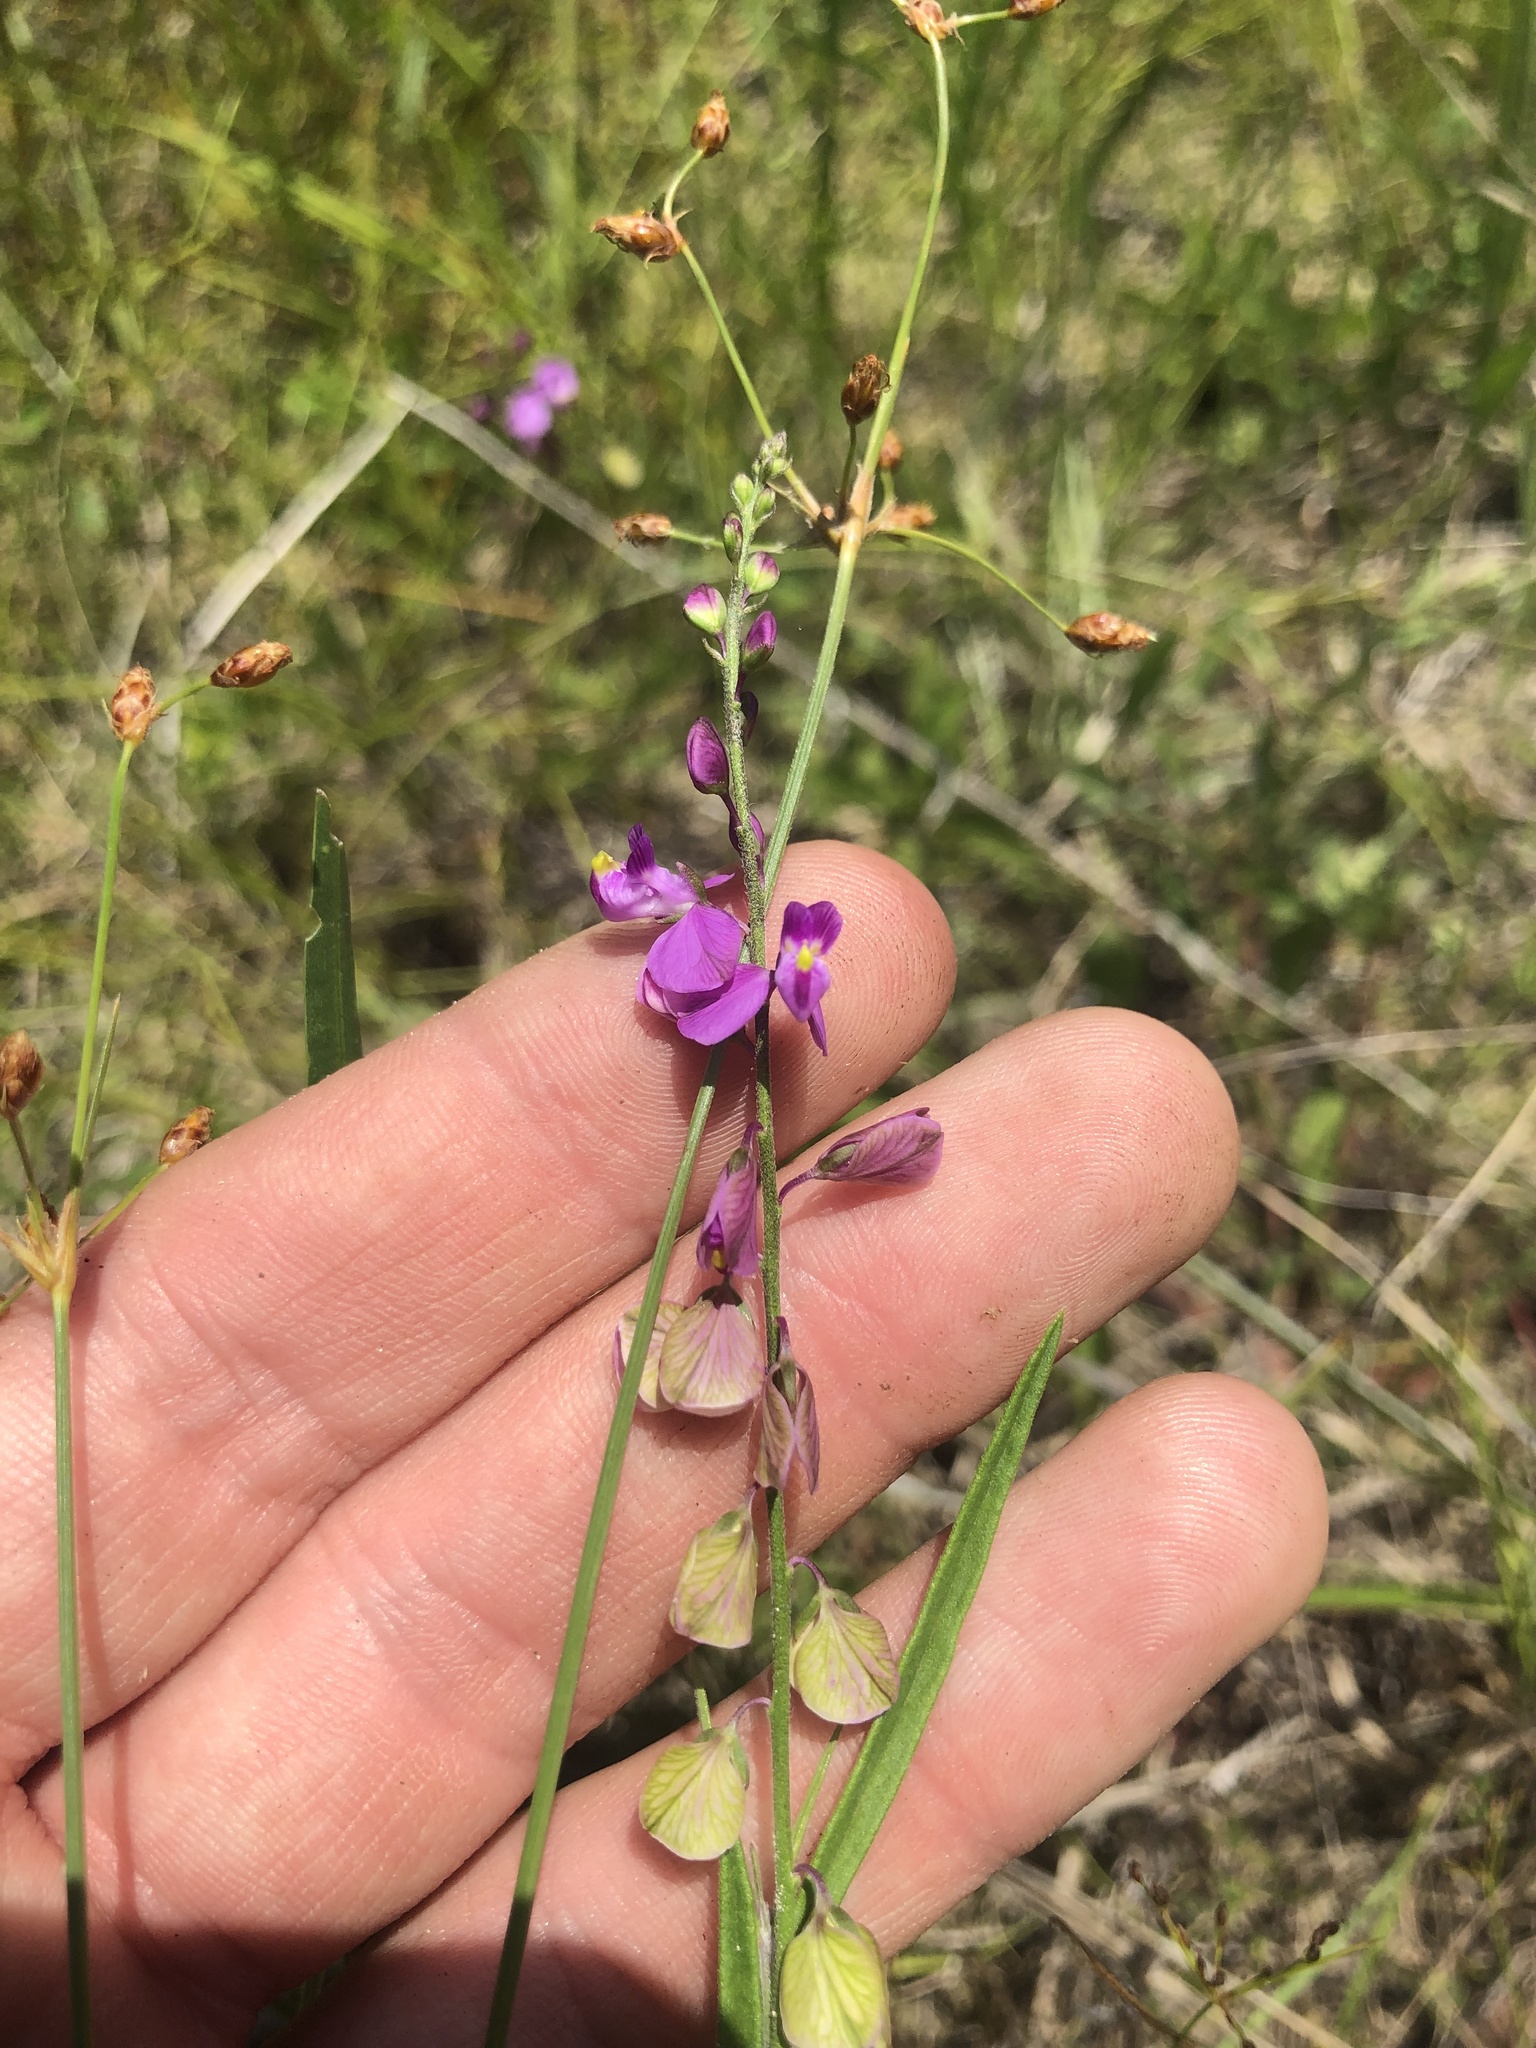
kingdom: Plantae
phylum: Tracheophyta
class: Magnoliopsida
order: Fabales
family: Polygalaceae
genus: Asemeia
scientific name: Asemeia grandiflora
